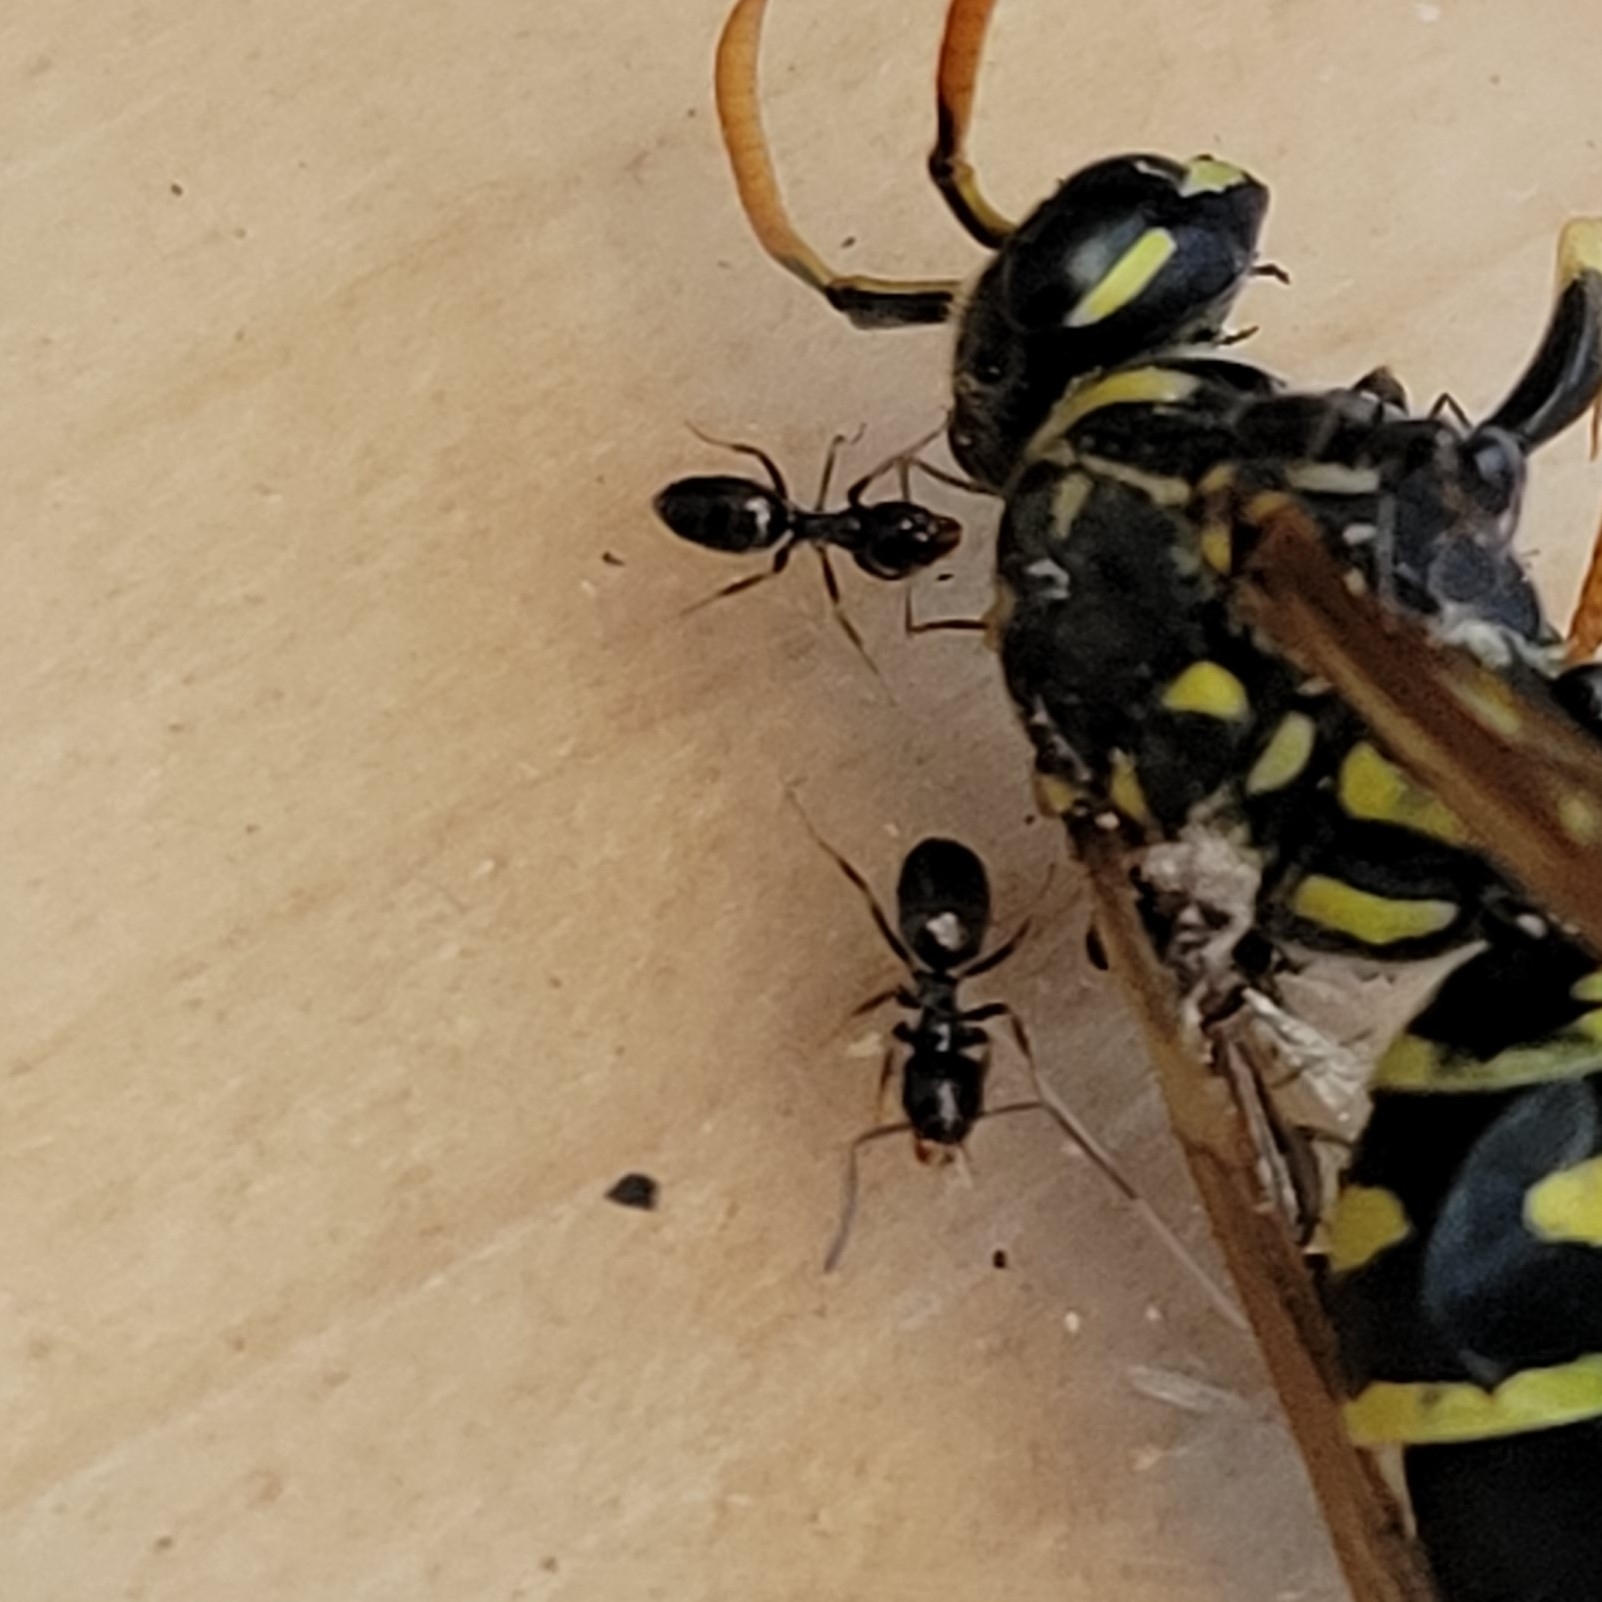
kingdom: Animalia
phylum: Arthropoda
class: Insecta
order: Hymenoptera
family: Formicidae
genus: Tapinoma
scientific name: Tapinoma sessile
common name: Odorous house ant
